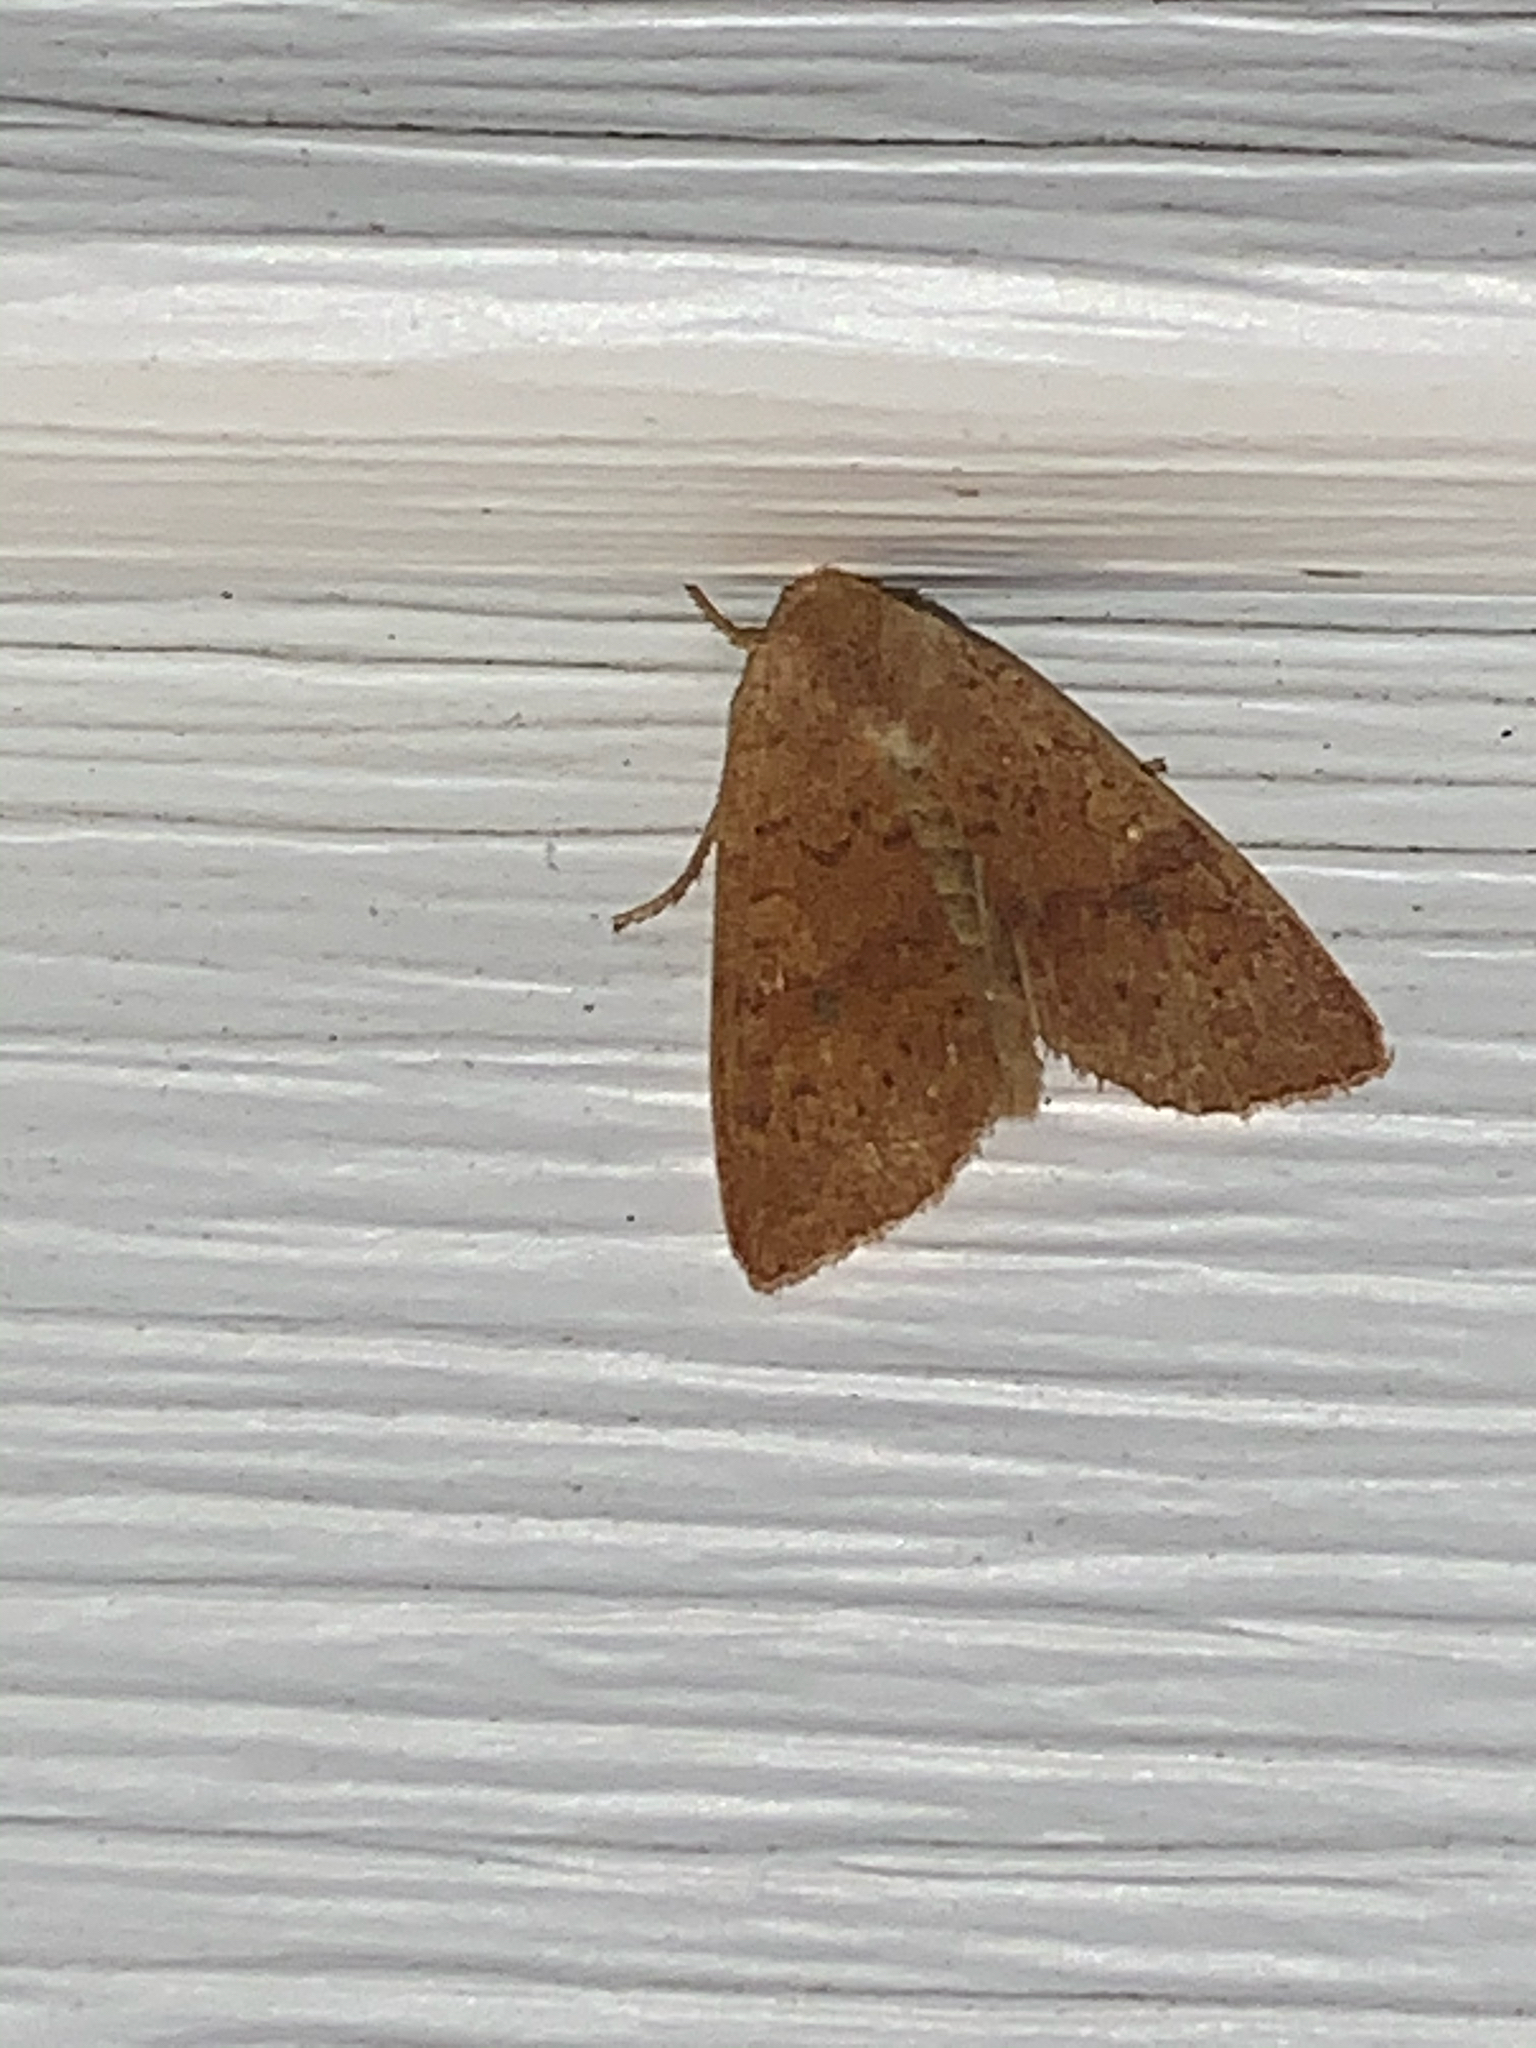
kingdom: Animalia
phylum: Arthropoda
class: Insecta
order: Lepidoptera
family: Noctuidae
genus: Agrochola
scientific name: Agrochola bicolorago
